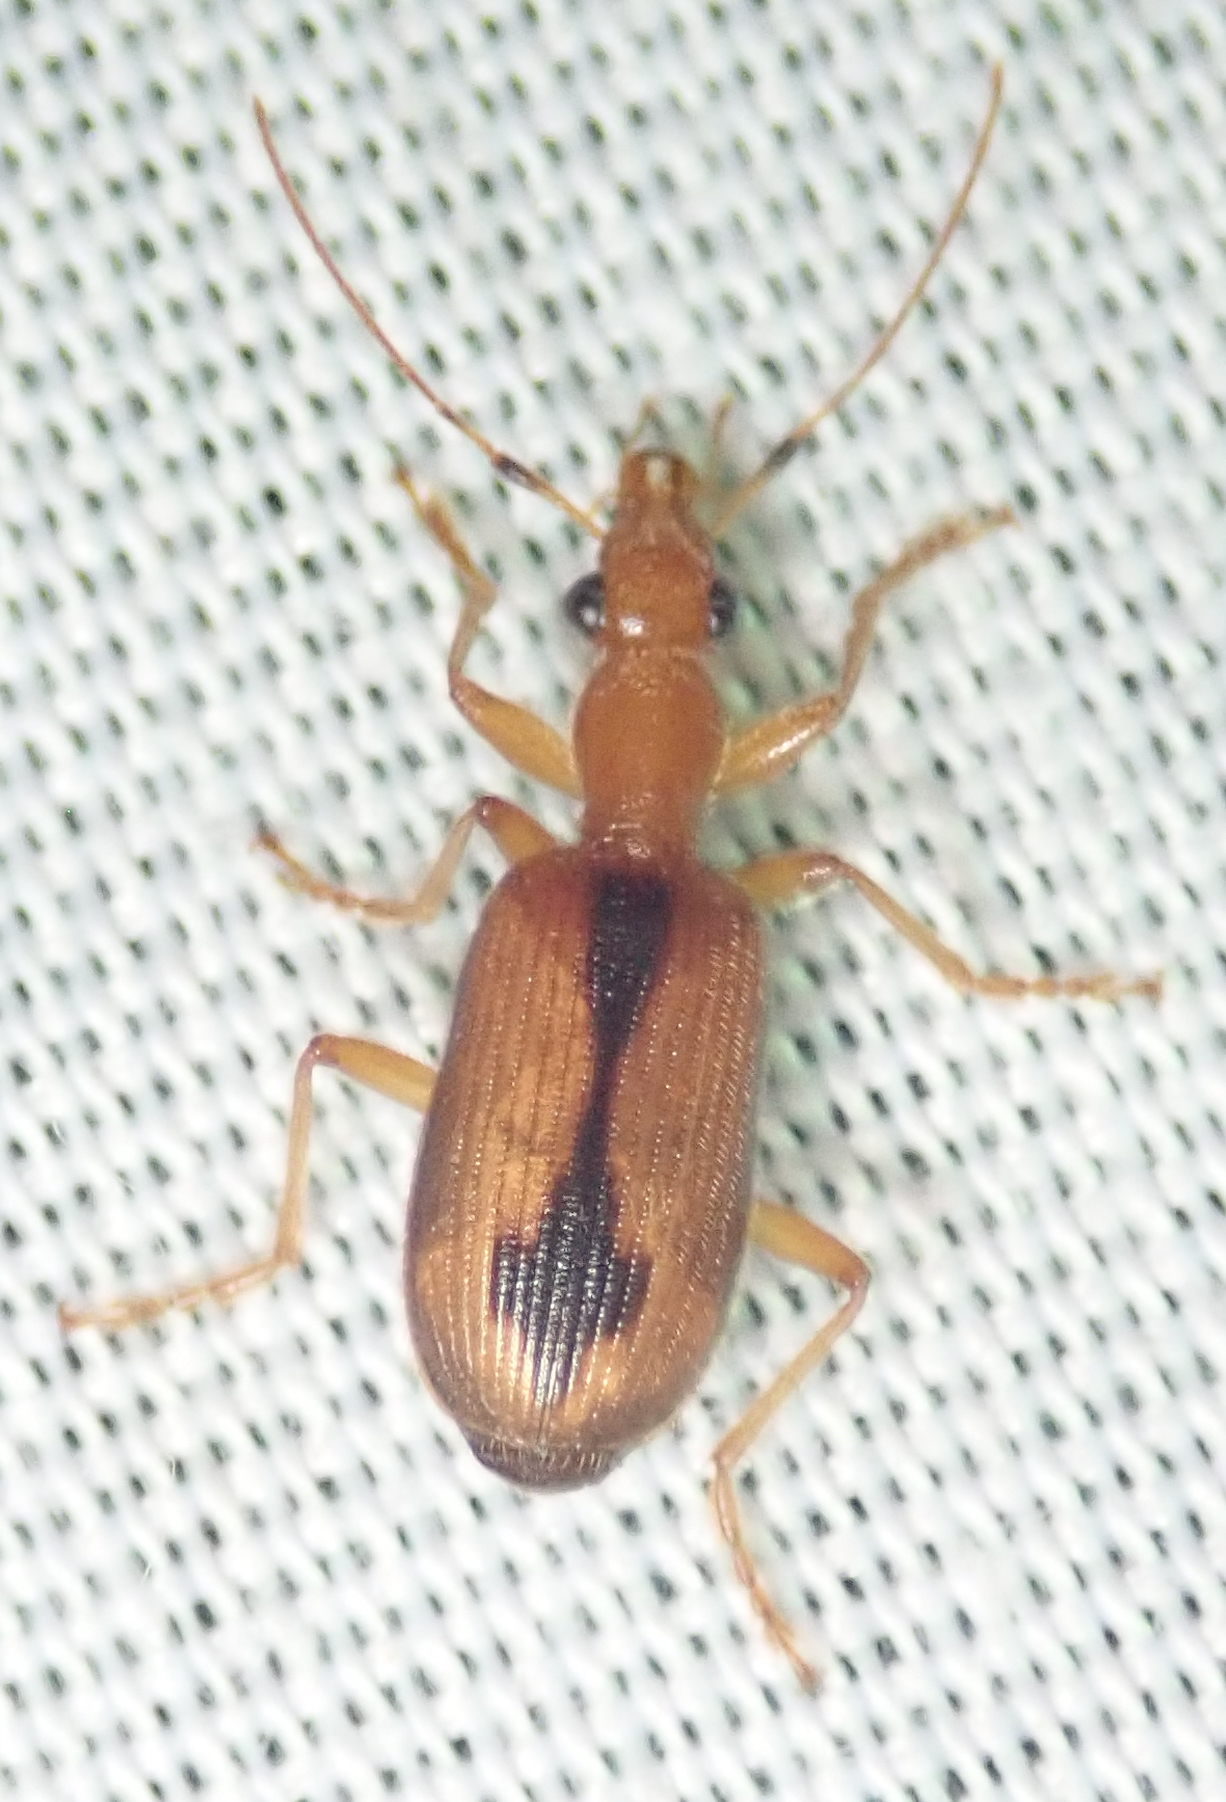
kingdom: Animalia
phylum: Arthropoda
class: Insecta
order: Coleoptera
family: Carabidae
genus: Drypta
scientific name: Drypta distincta
